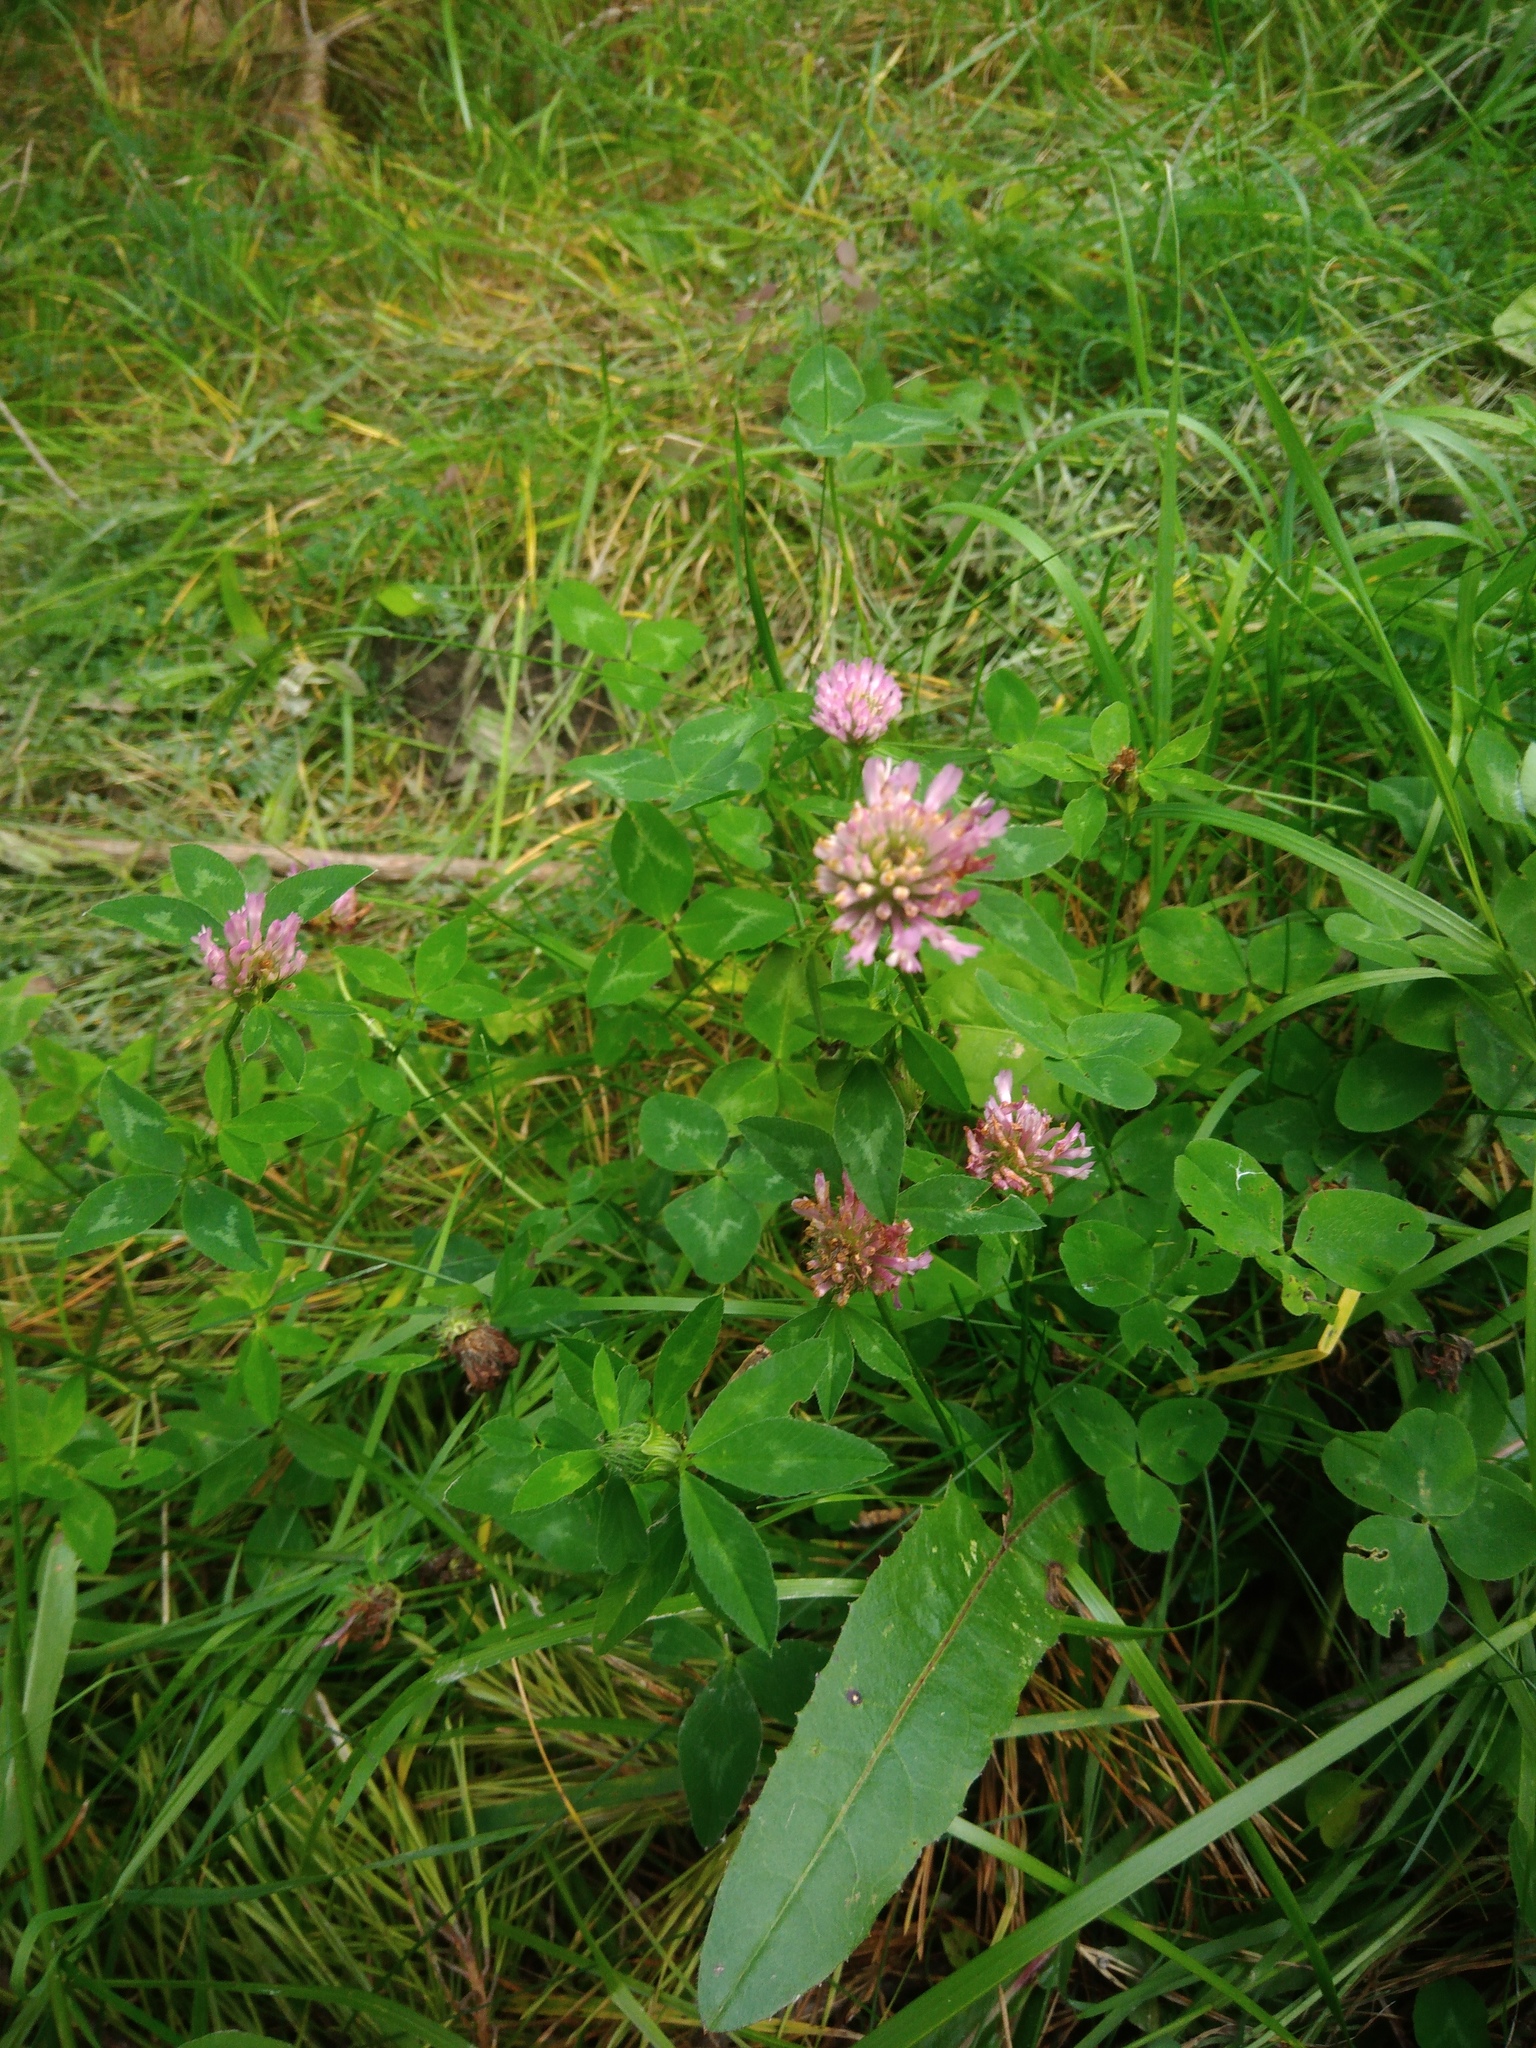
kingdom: Plantae
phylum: Tracheophyta
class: Magnoliopsida
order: Fabales
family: Fabaceae
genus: Trifolium
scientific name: Trifolium pratense
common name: Red clover
